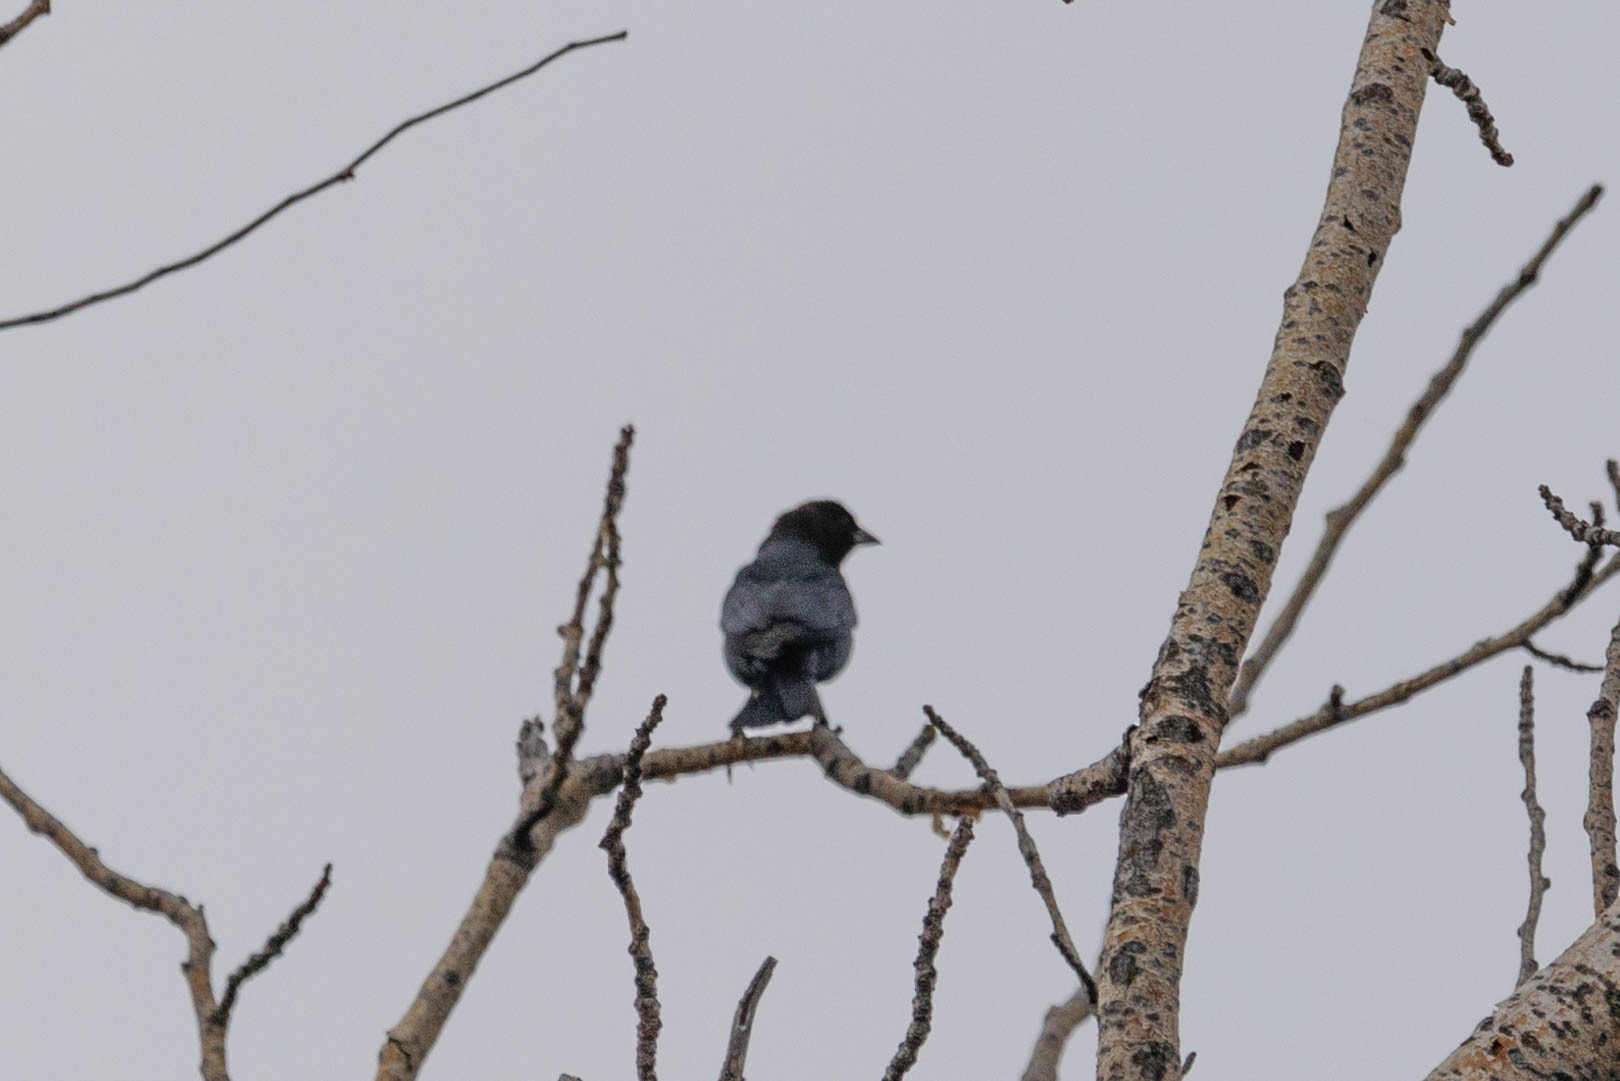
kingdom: Animalia
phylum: Chordata
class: Aves
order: Passeriformes
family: Icteridae
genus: Molothrus
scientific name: Molothrus ater
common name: Brown-headed cowbird
